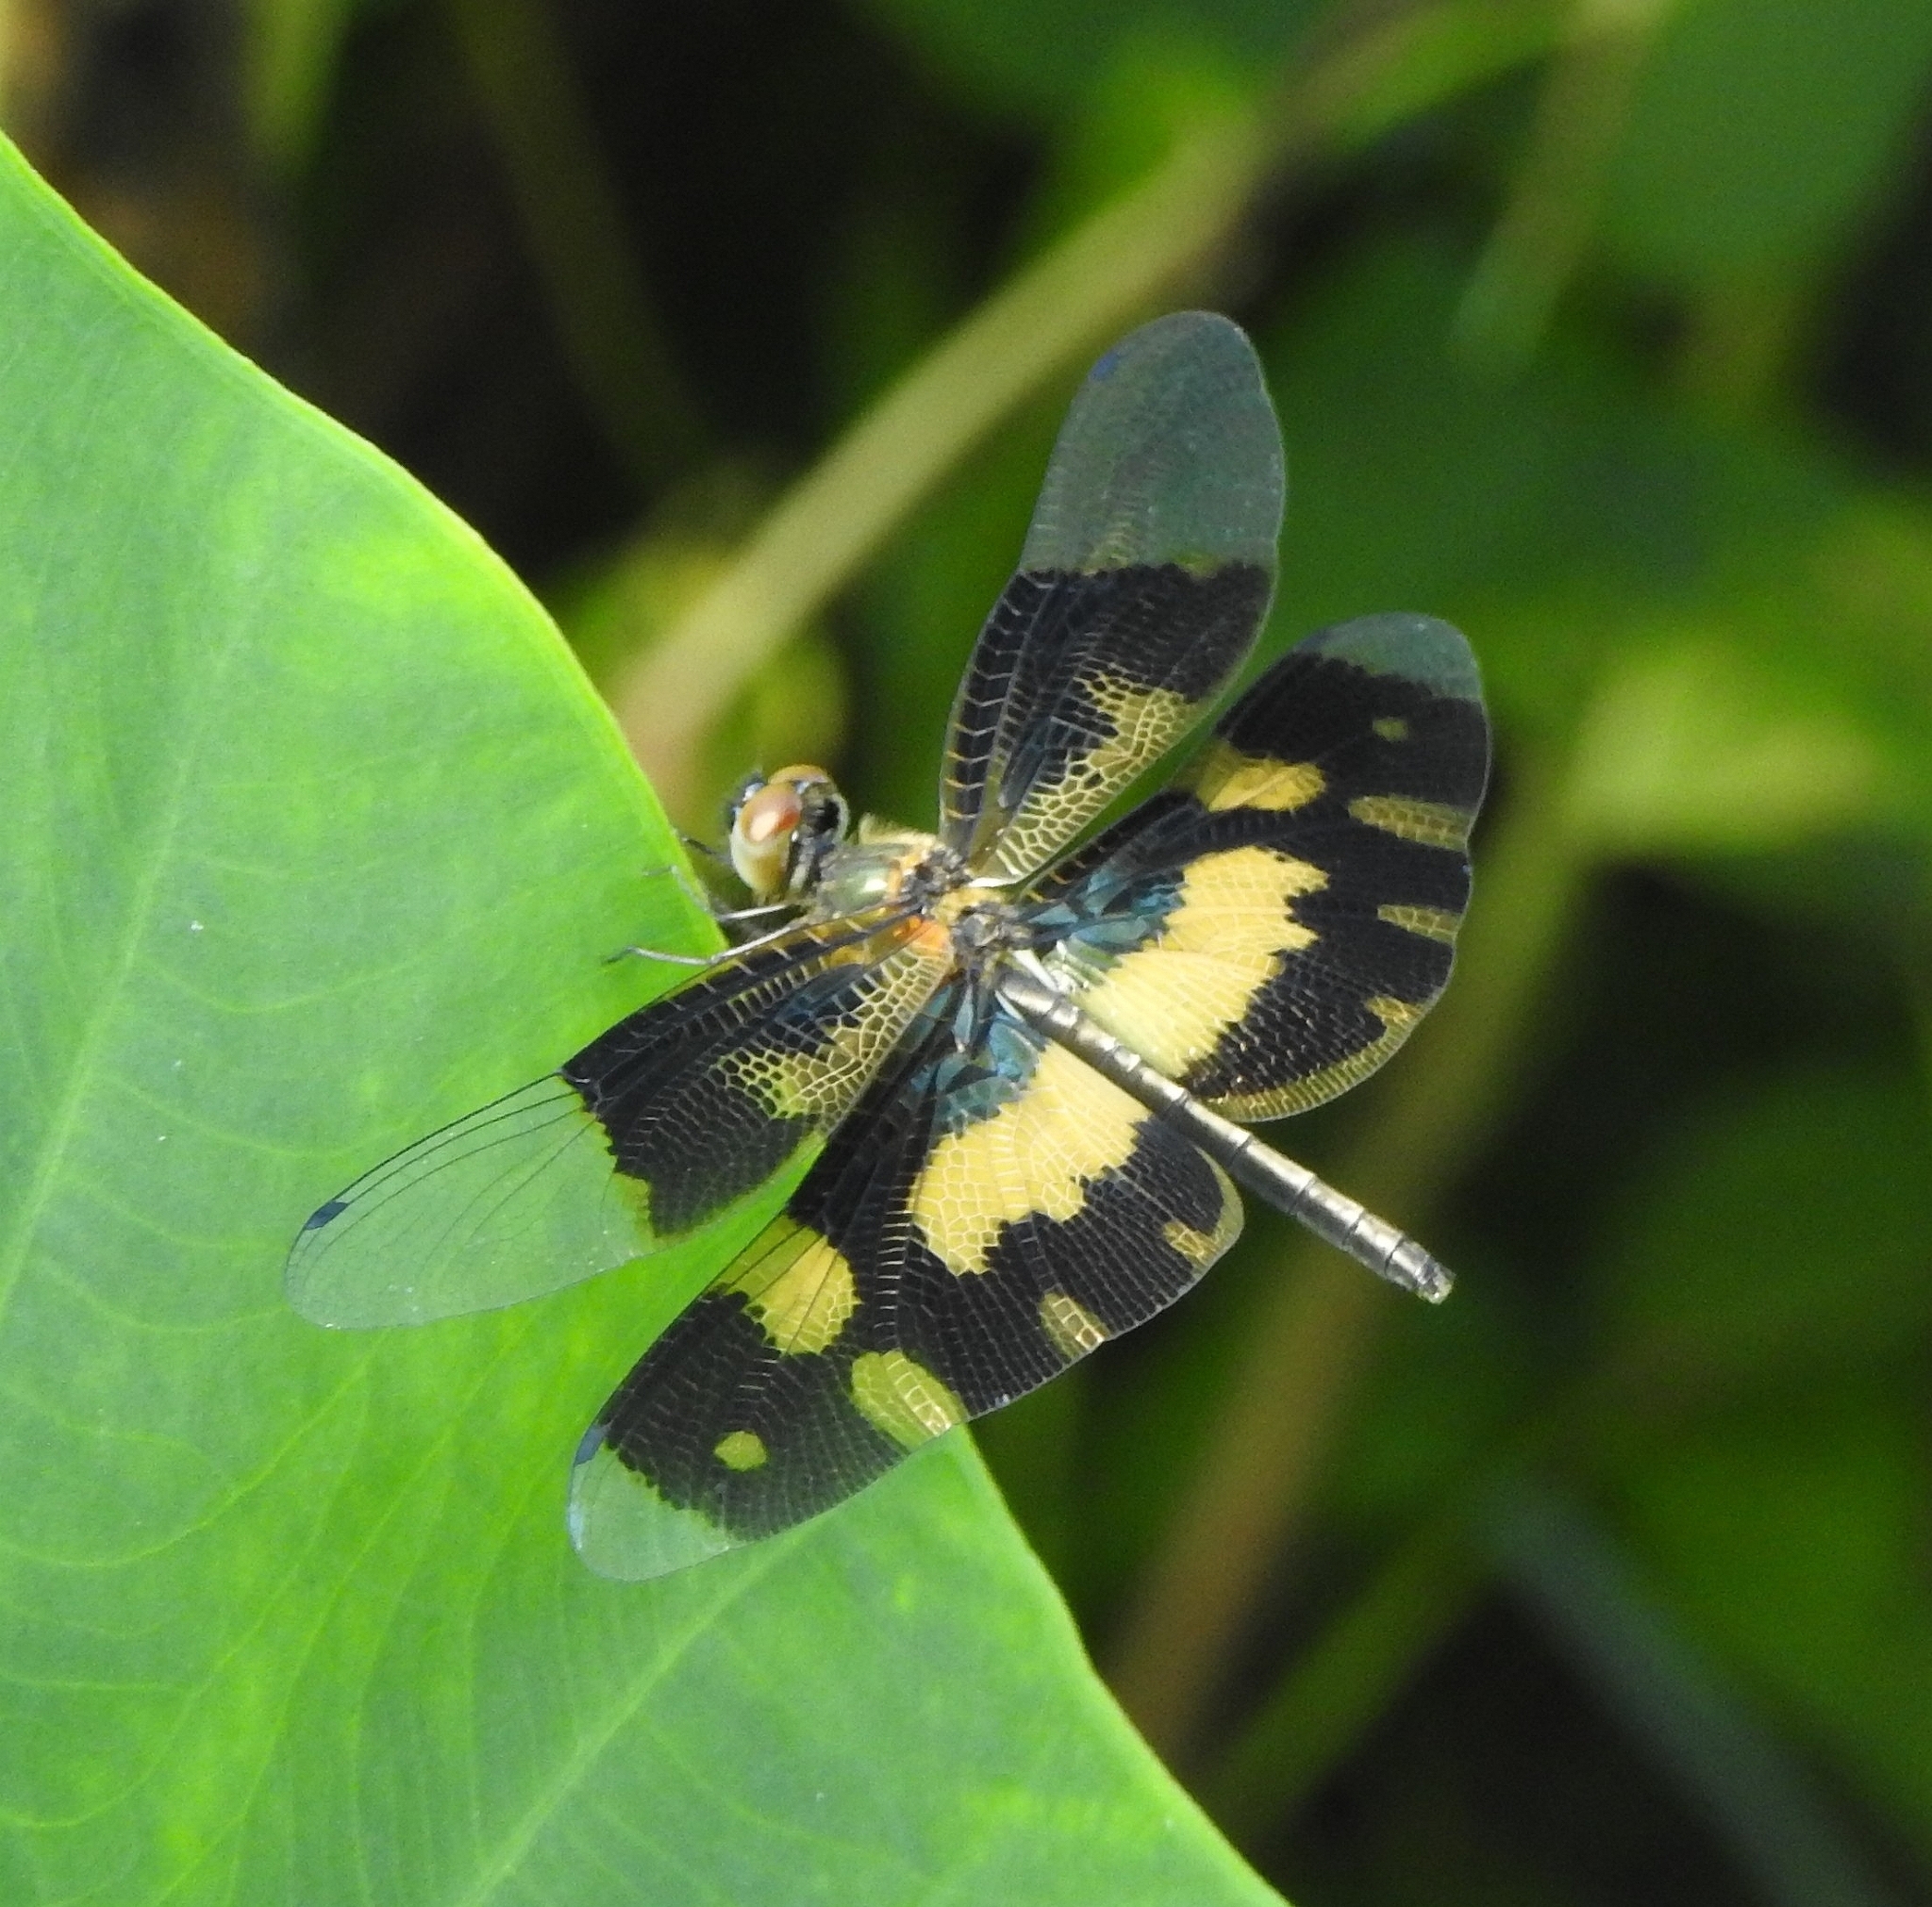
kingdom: Animalia
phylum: Arthropoda
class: Insecta
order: Odonata
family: Libellulidae
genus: Rhyothemis
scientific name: Rhyothemis variegata
